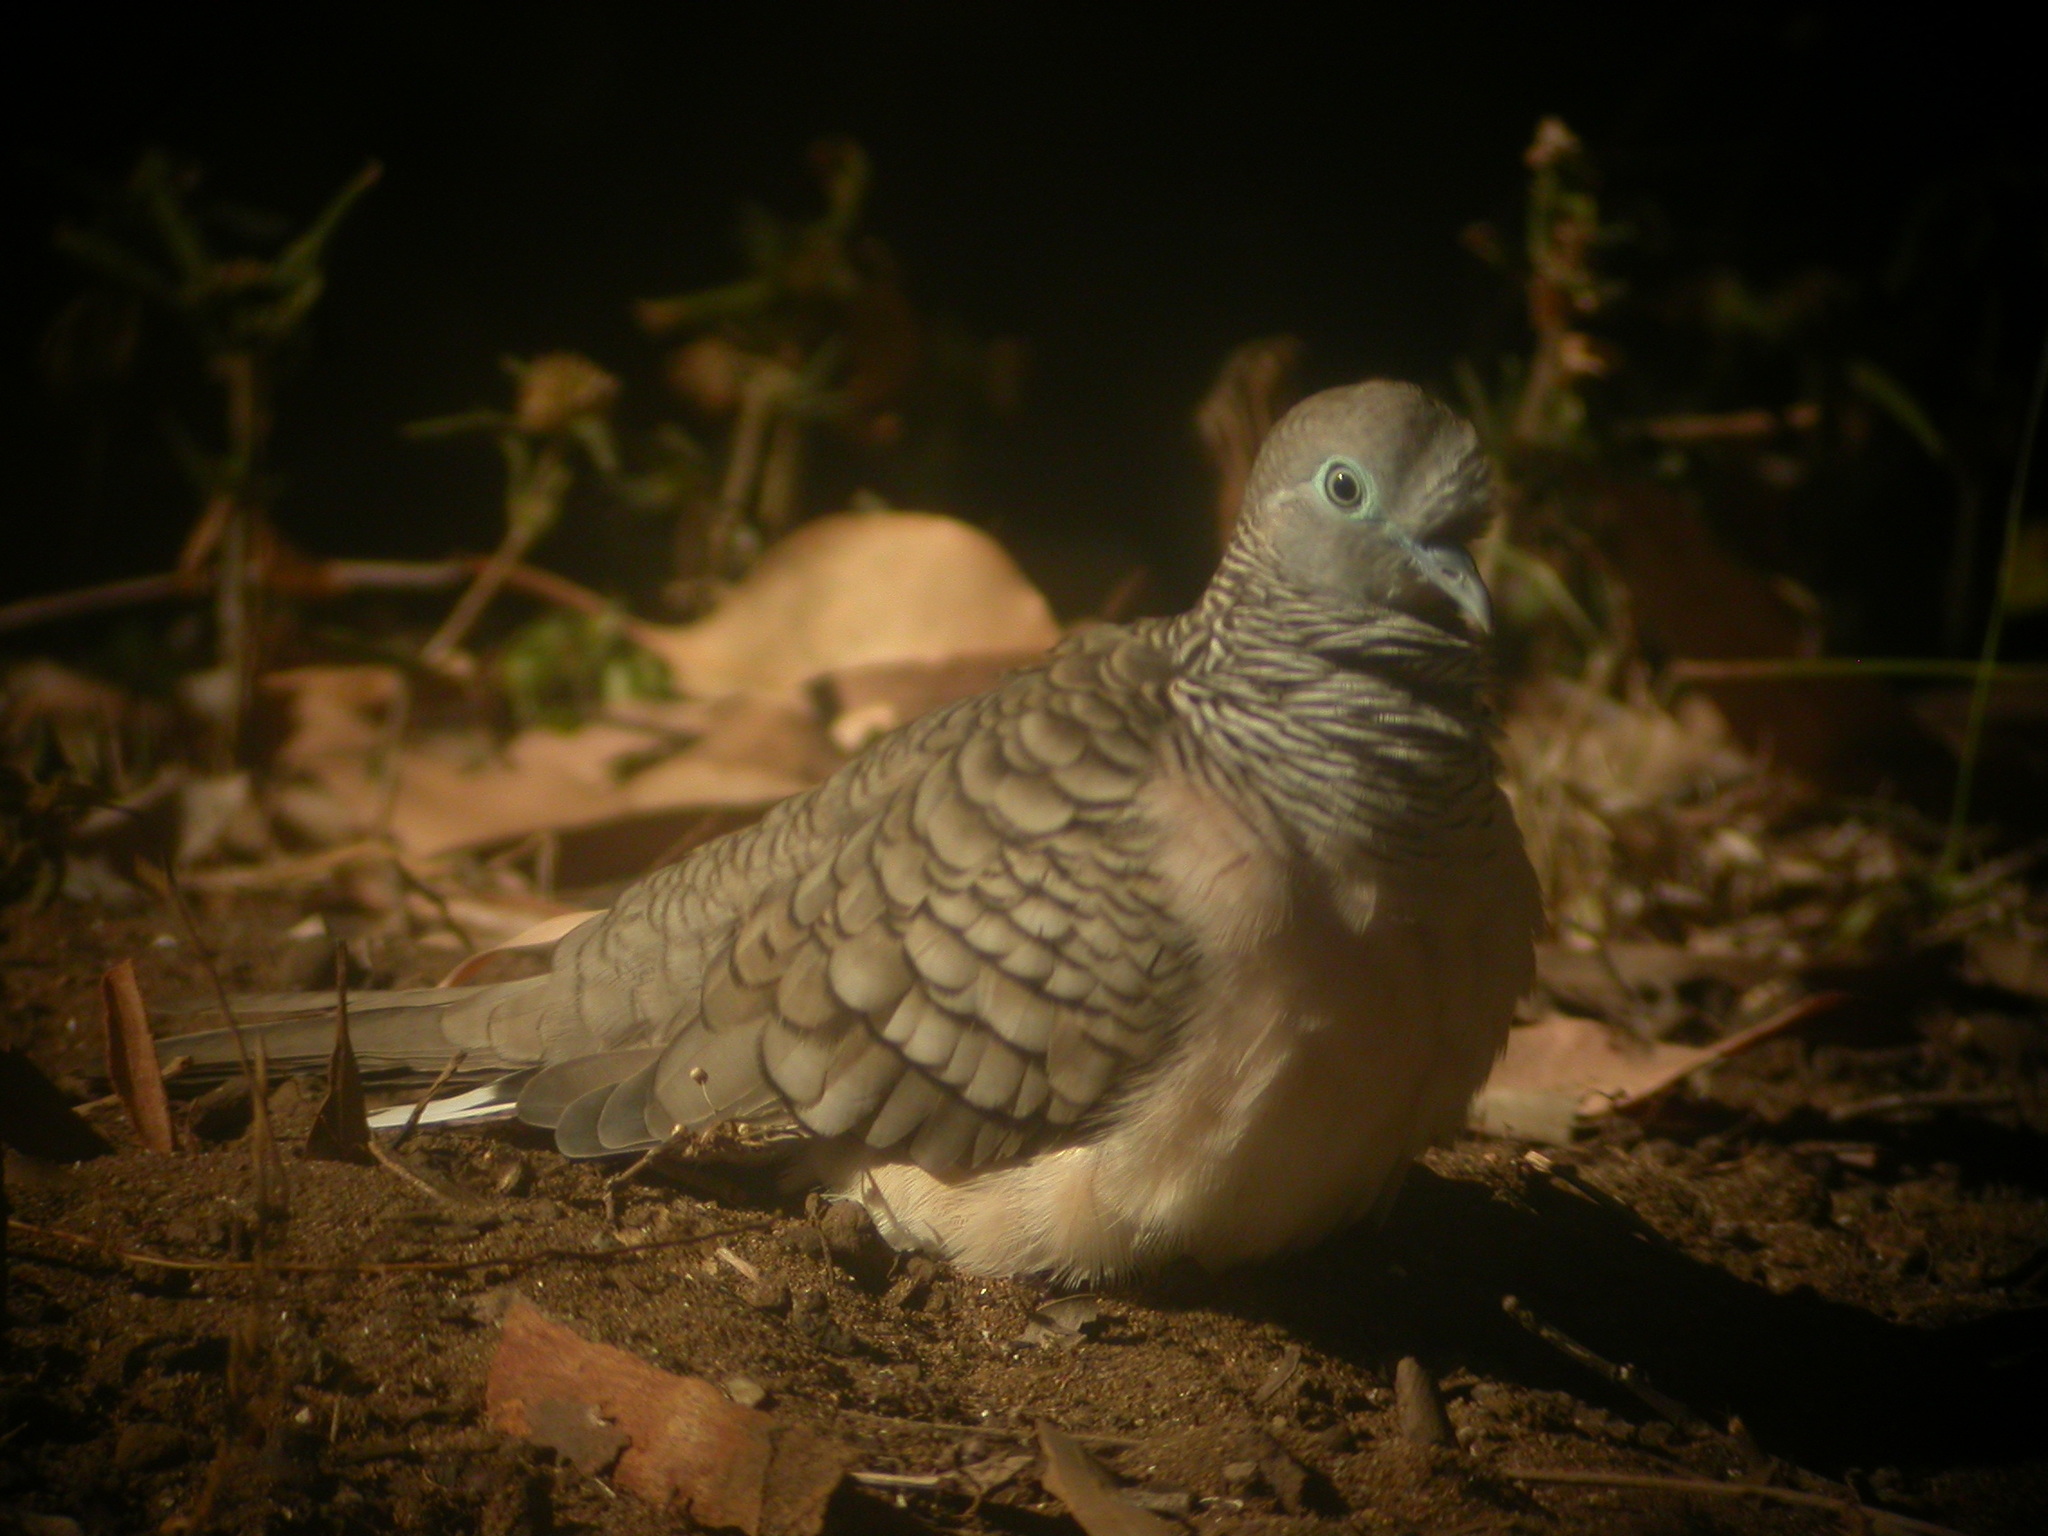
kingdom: Animalia
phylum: Chordata
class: Aves
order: Columbiformes
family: Columbidae
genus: Geopelia
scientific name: Geopelia placida
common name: Peaceful dove
